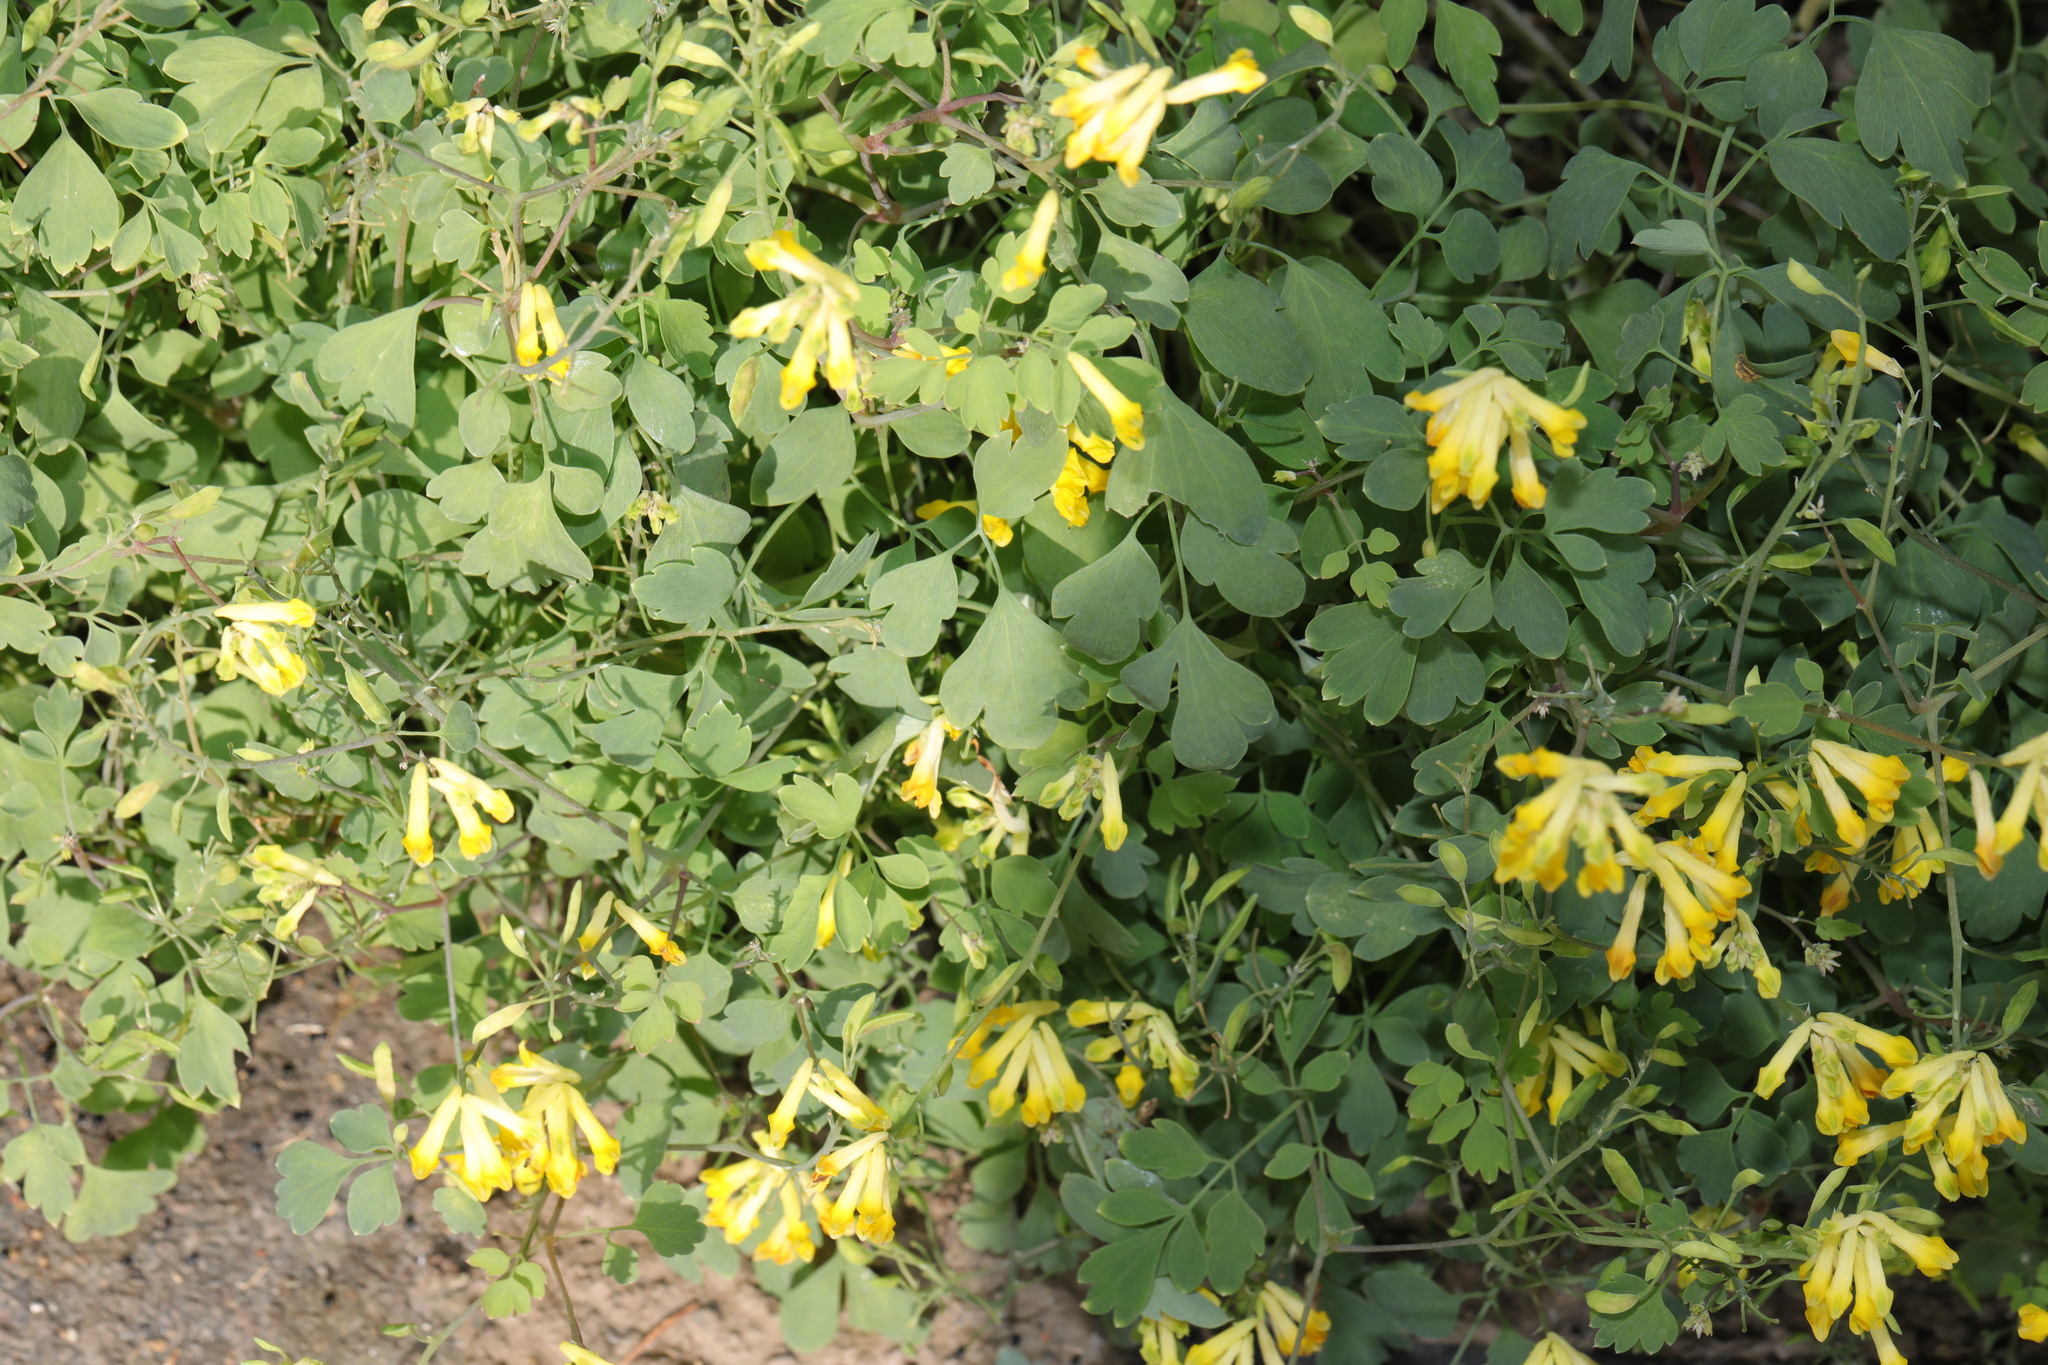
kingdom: Plantae
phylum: Tracheophyta
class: Magnoliopsida
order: Ranunculales
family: Papaveraceae
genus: Pseudofumaria
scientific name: Pseudofumaria lutea
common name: Yellow corydalis
